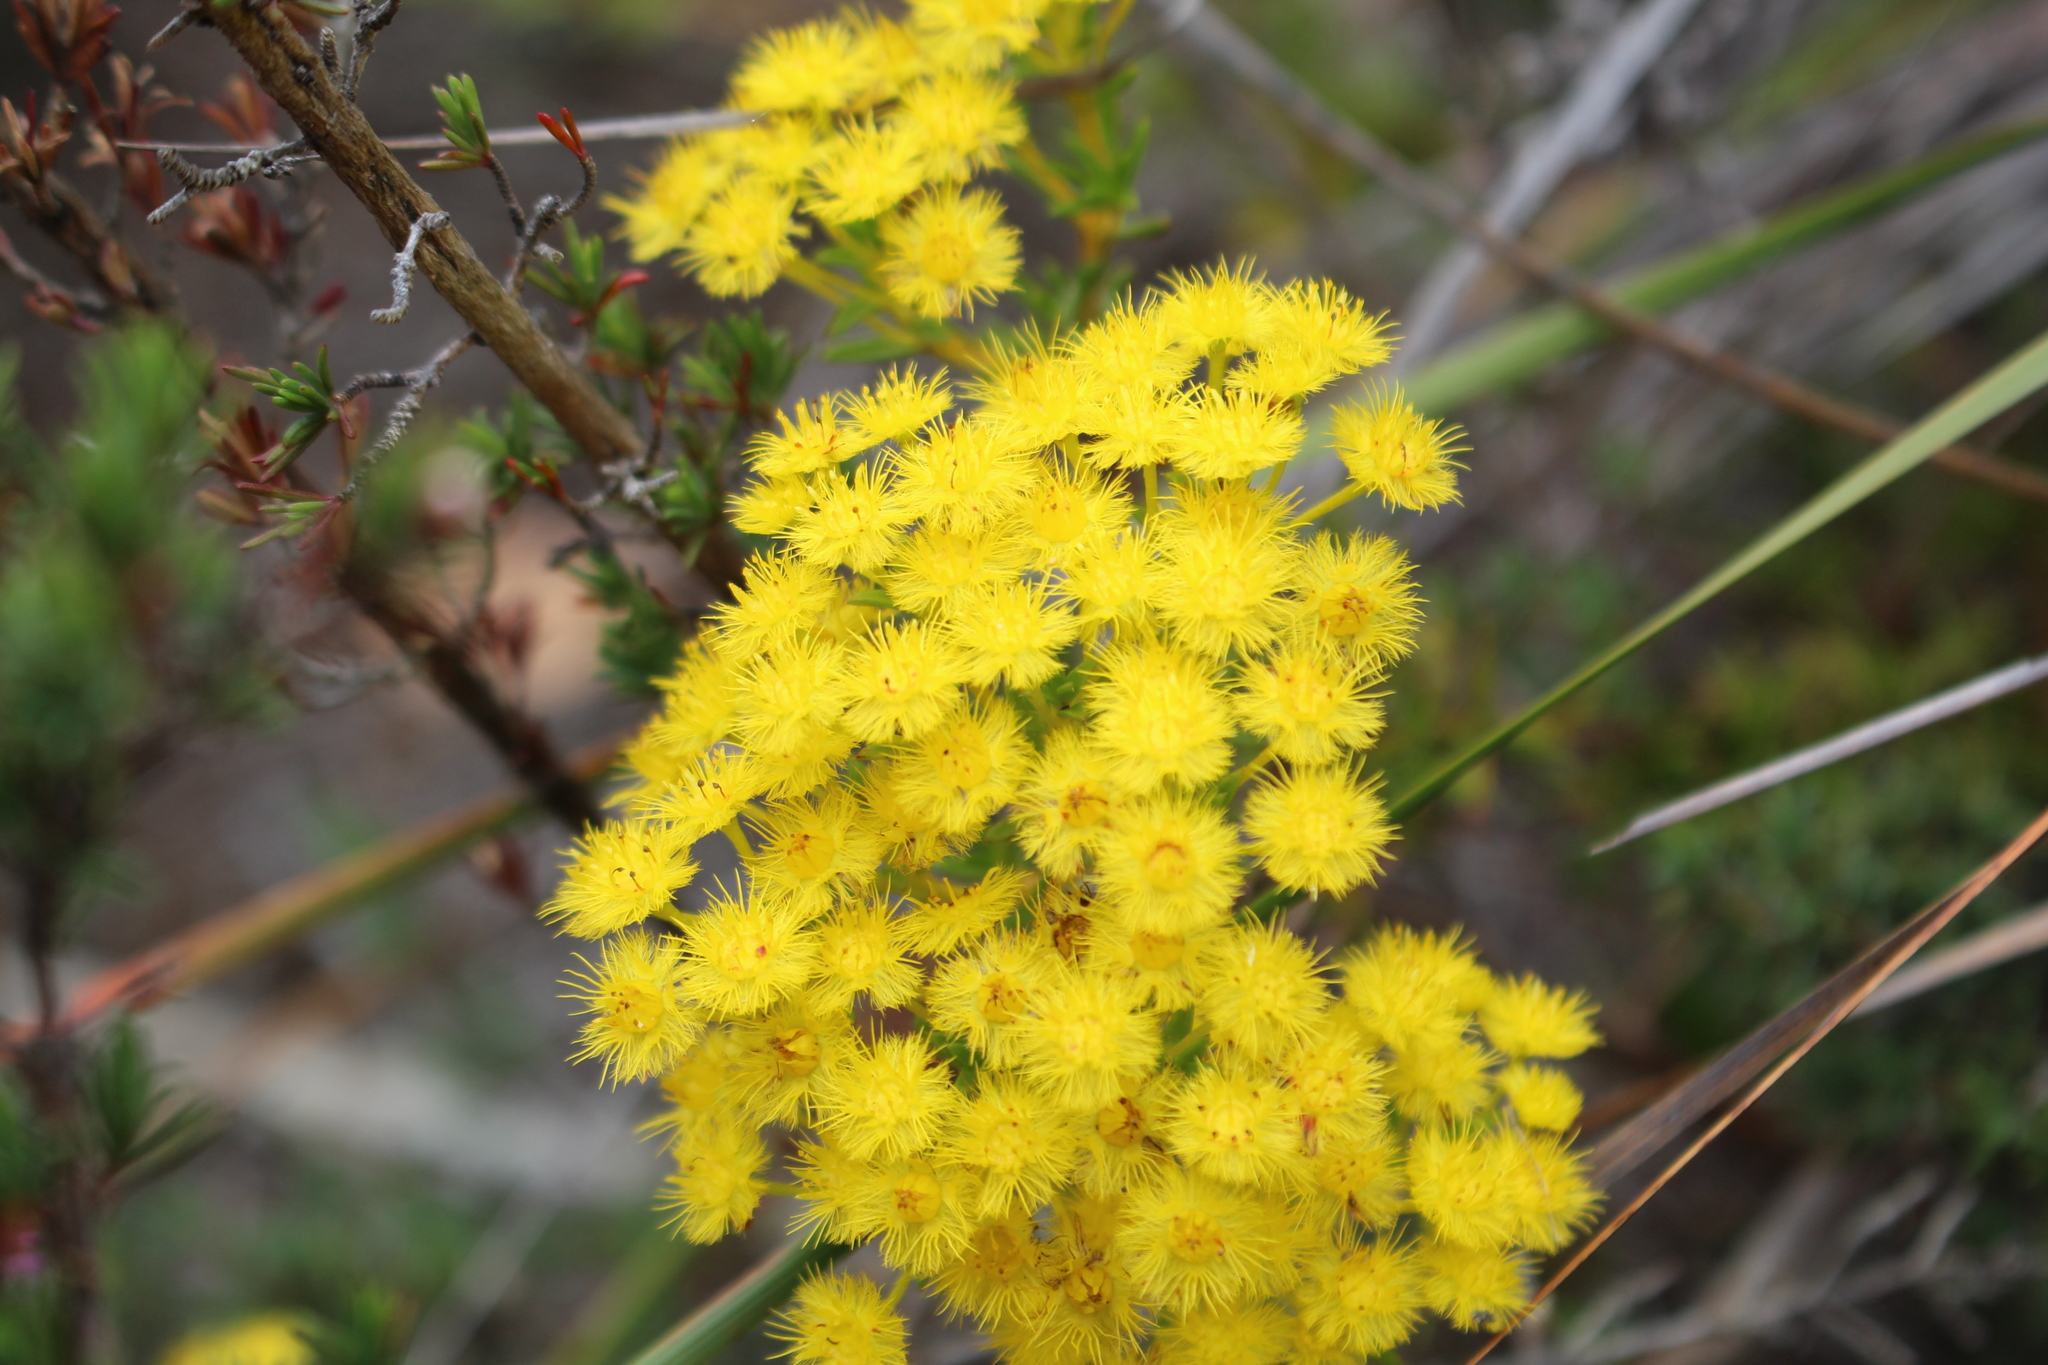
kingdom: Plantae
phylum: Tracheophyta
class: Magnoliopsida
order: Myrtales
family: Myrtaceae
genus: Verticordia
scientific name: Verticordia endlicheriana
